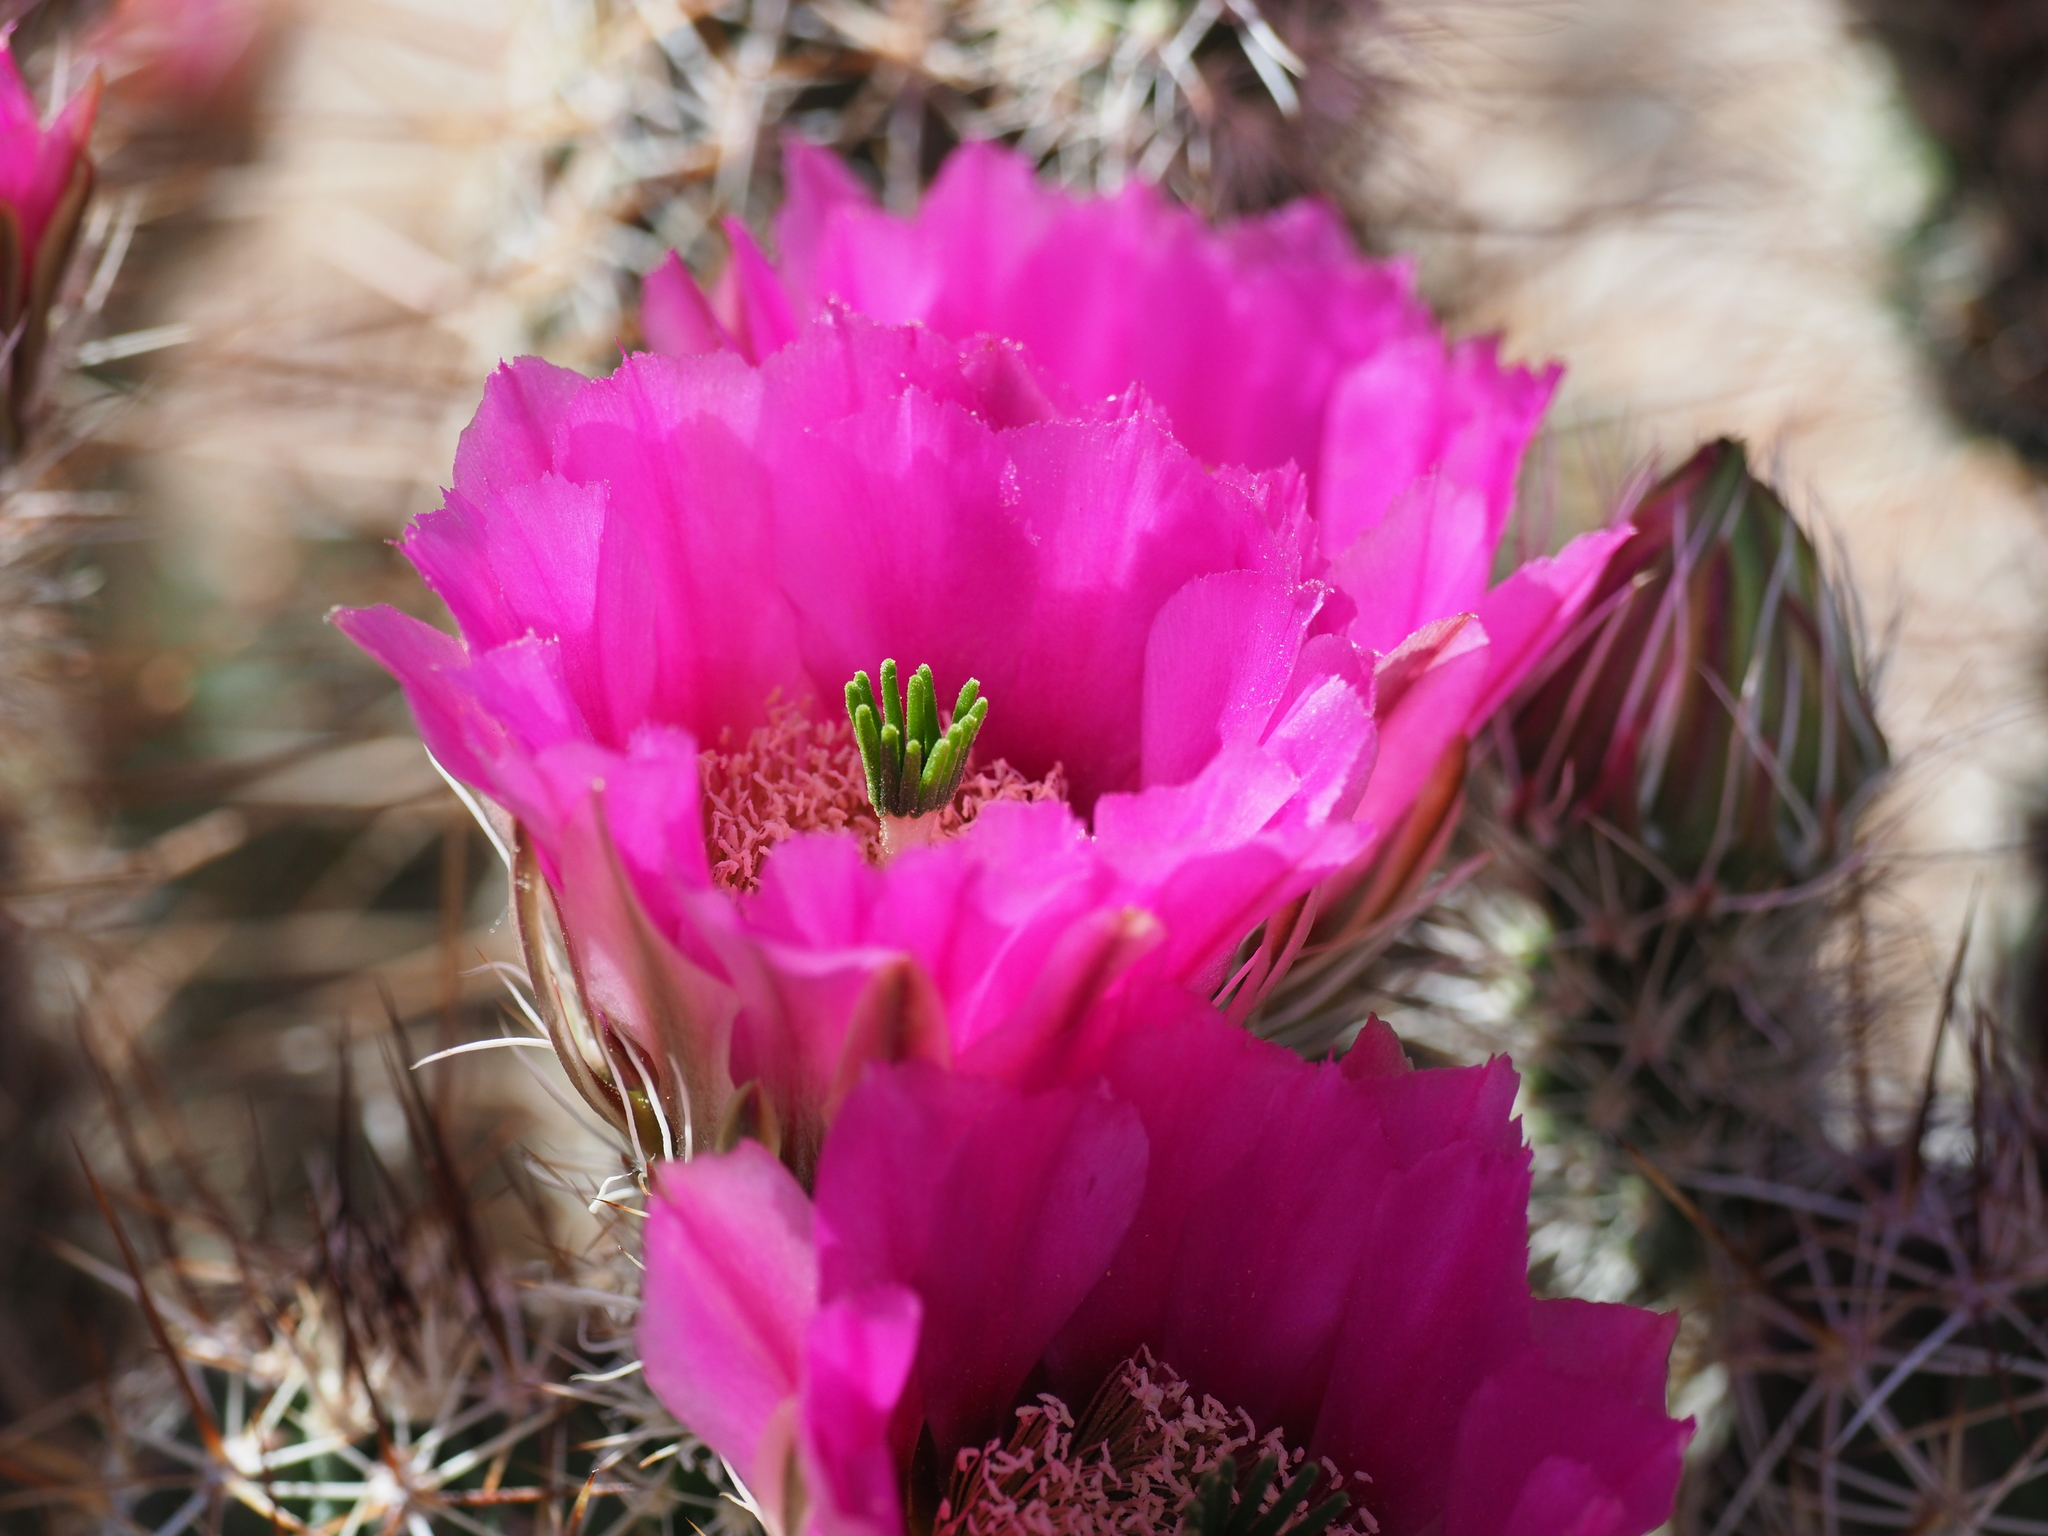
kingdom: Plantae
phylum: Tracheophyta
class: Magnoliopsida
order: Caryophyllales
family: Cactaceae
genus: Echinocereus
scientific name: Echinocereus fasciculatus
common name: Bundle hedgehog
